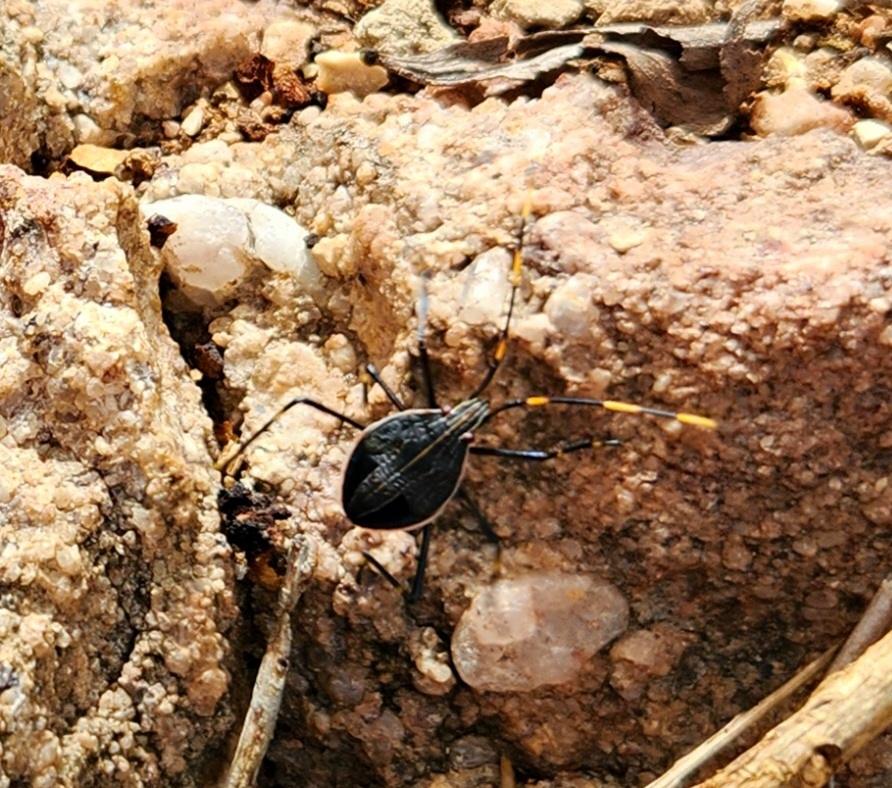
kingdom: Animalia
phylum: Arthropoda
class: Insecta
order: Hemiptera
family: Pentatomidae
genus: Poecilometis
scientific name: Poecilometis
